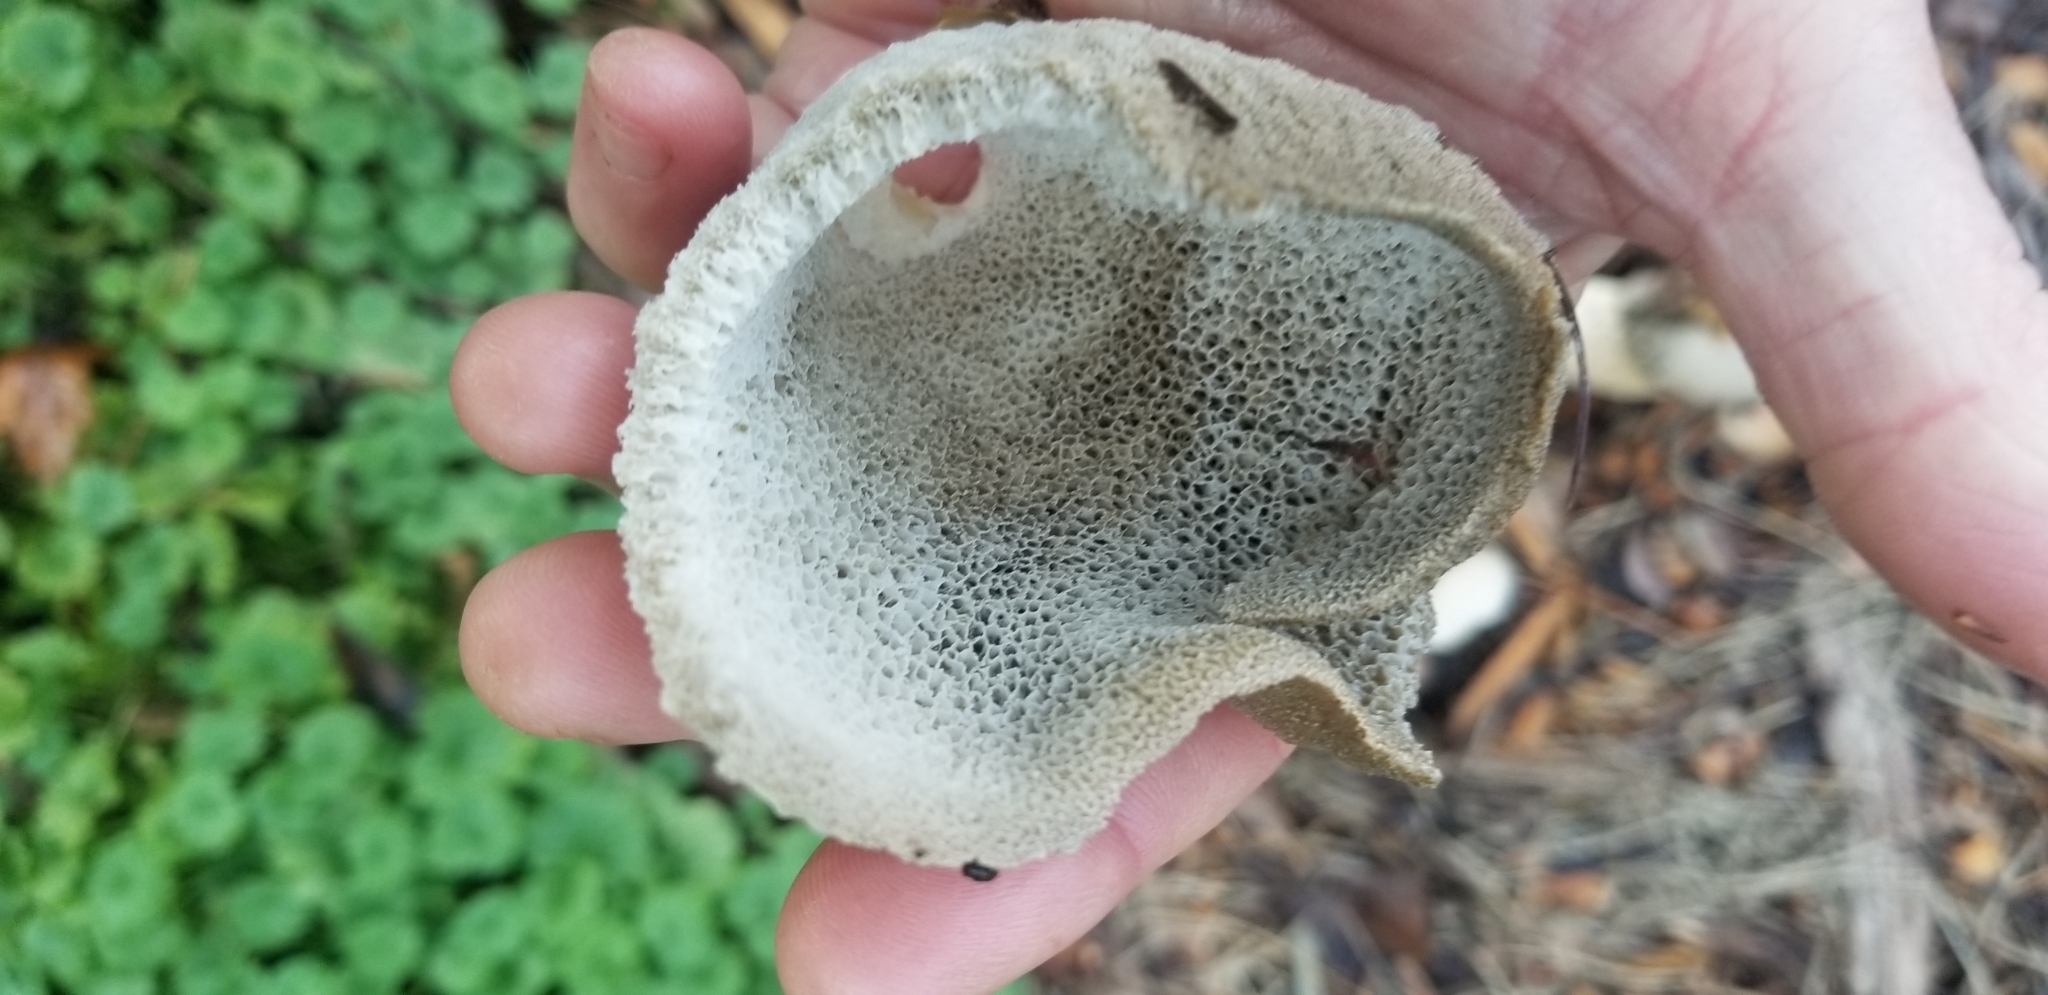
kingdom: Fungi
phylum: Basidiomycota
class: Agaricomycetes
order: Phallales
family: Phallaceae
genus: Phallus
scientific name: Phallus ravenelii
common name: Ravenel's stinkhorn
